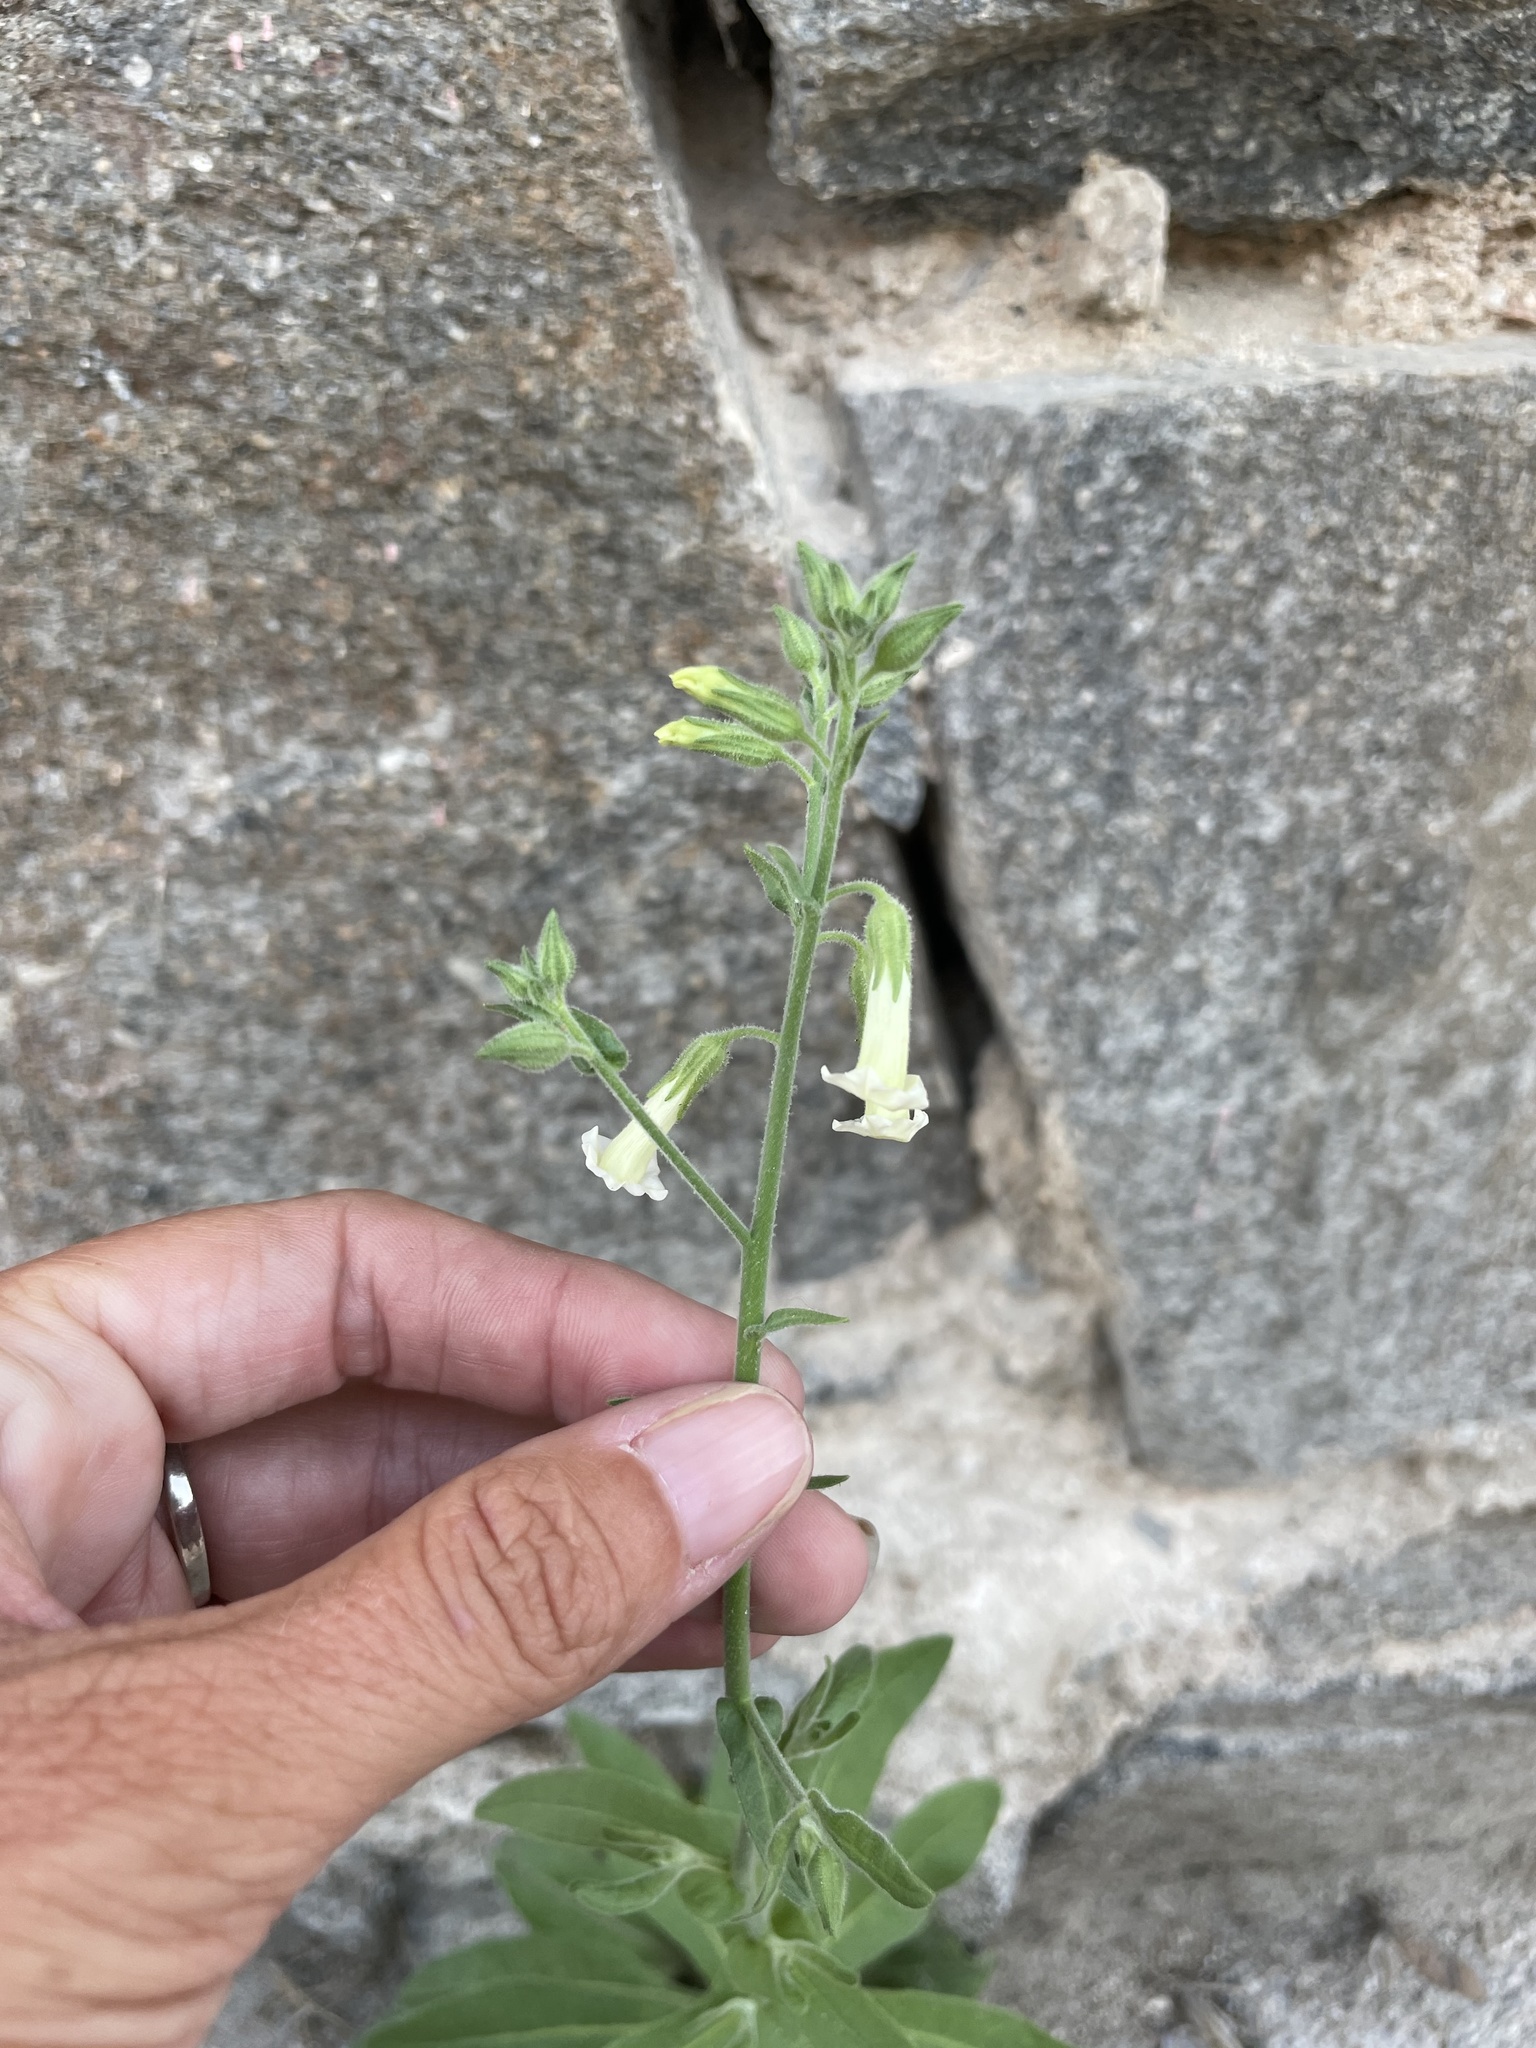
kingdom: Plantae
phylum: Tracheophyta
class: Magnoliopsida
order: Solanales
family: Solanaceae
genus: Nicotiana
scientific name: Nicotiana obtusifolia
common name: Desert tobacco
